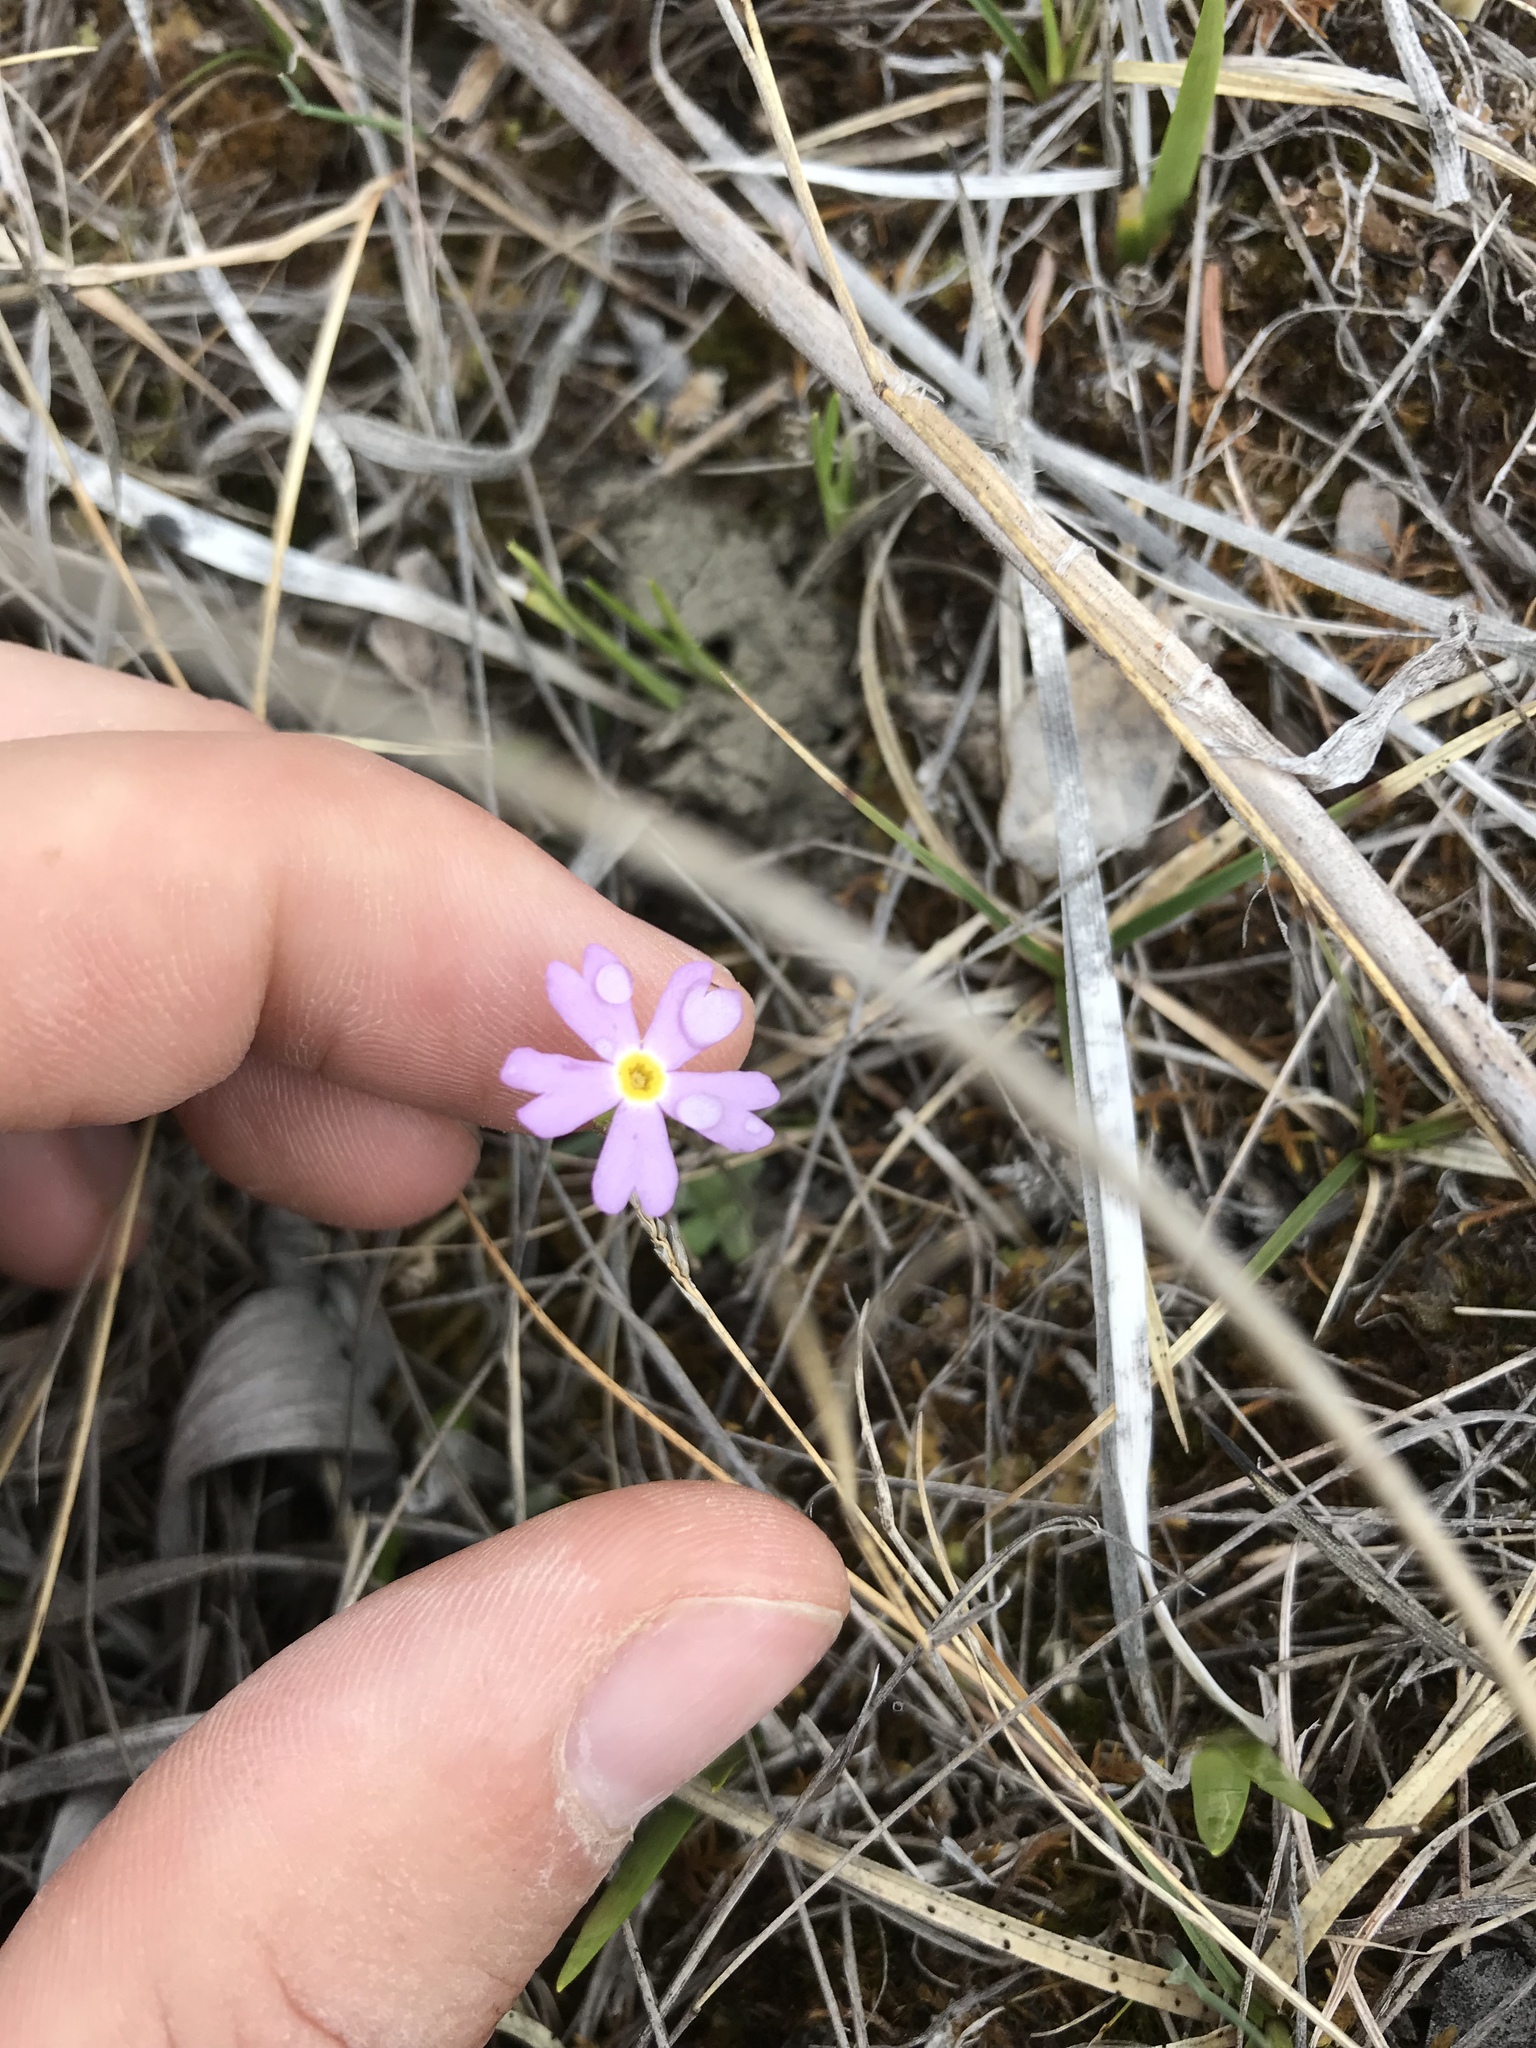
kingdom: Plantae
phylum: Tracheophyta
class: Magnoliopsida
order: Ericales
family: Primulaceae
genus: Primula
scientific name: Primula mistassinica
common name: Bird's-eye primrose
